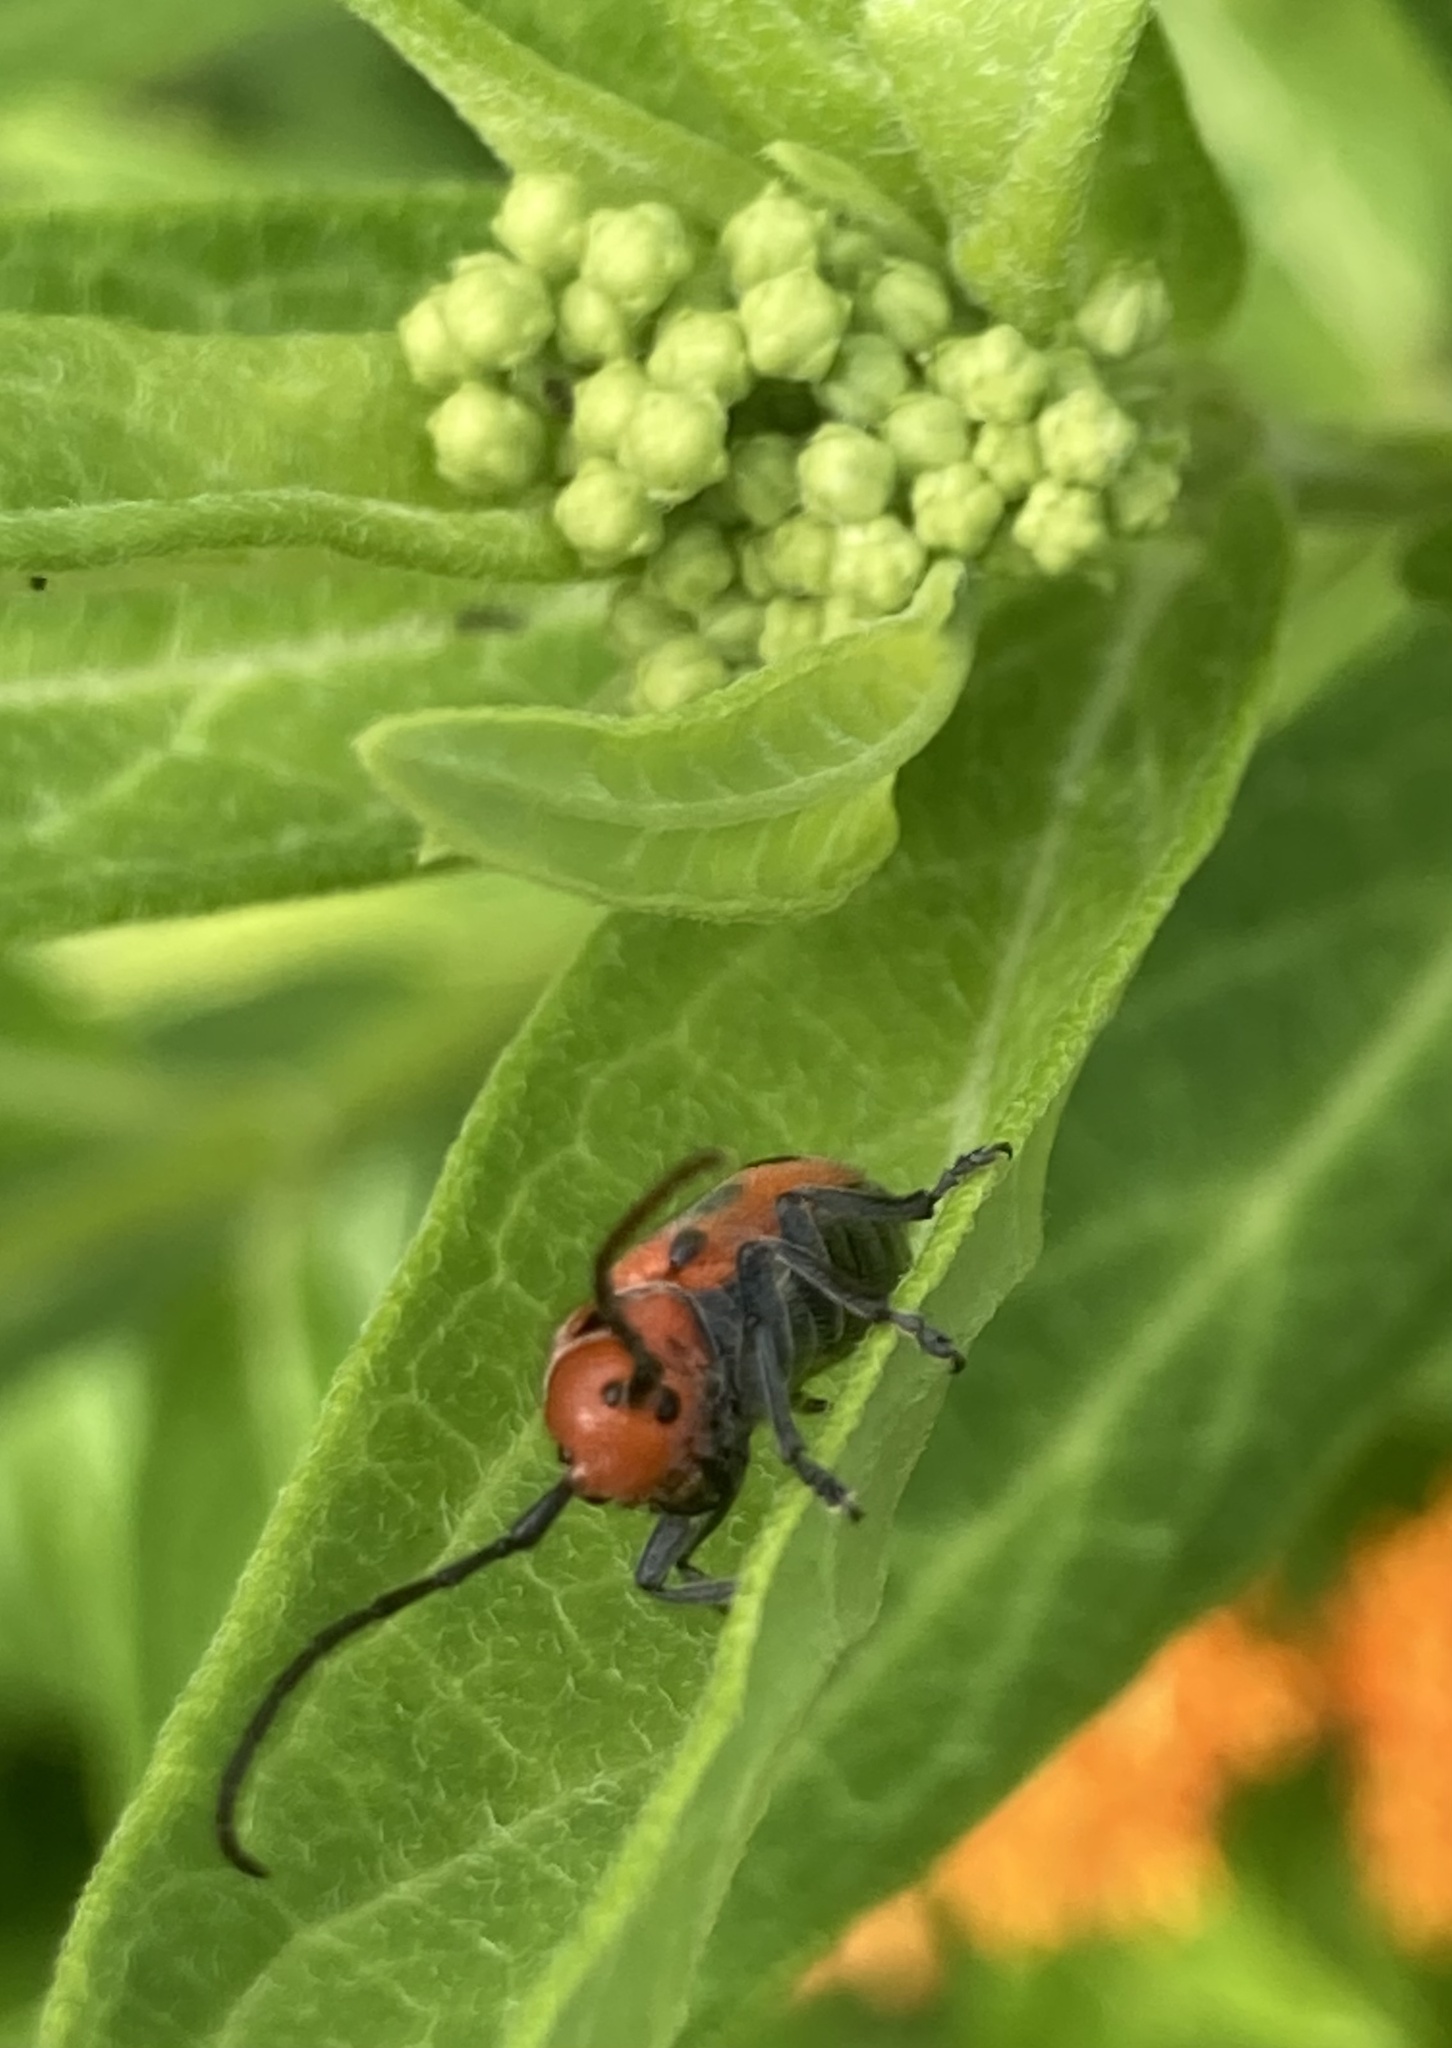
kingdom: Animalia
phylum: Arthropoda
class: Insecta
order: Coleoptera
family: Cerambycidae
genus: Tetraopes
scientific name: Tetraopes tetrophthalmus
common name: Red milkweed beetle
